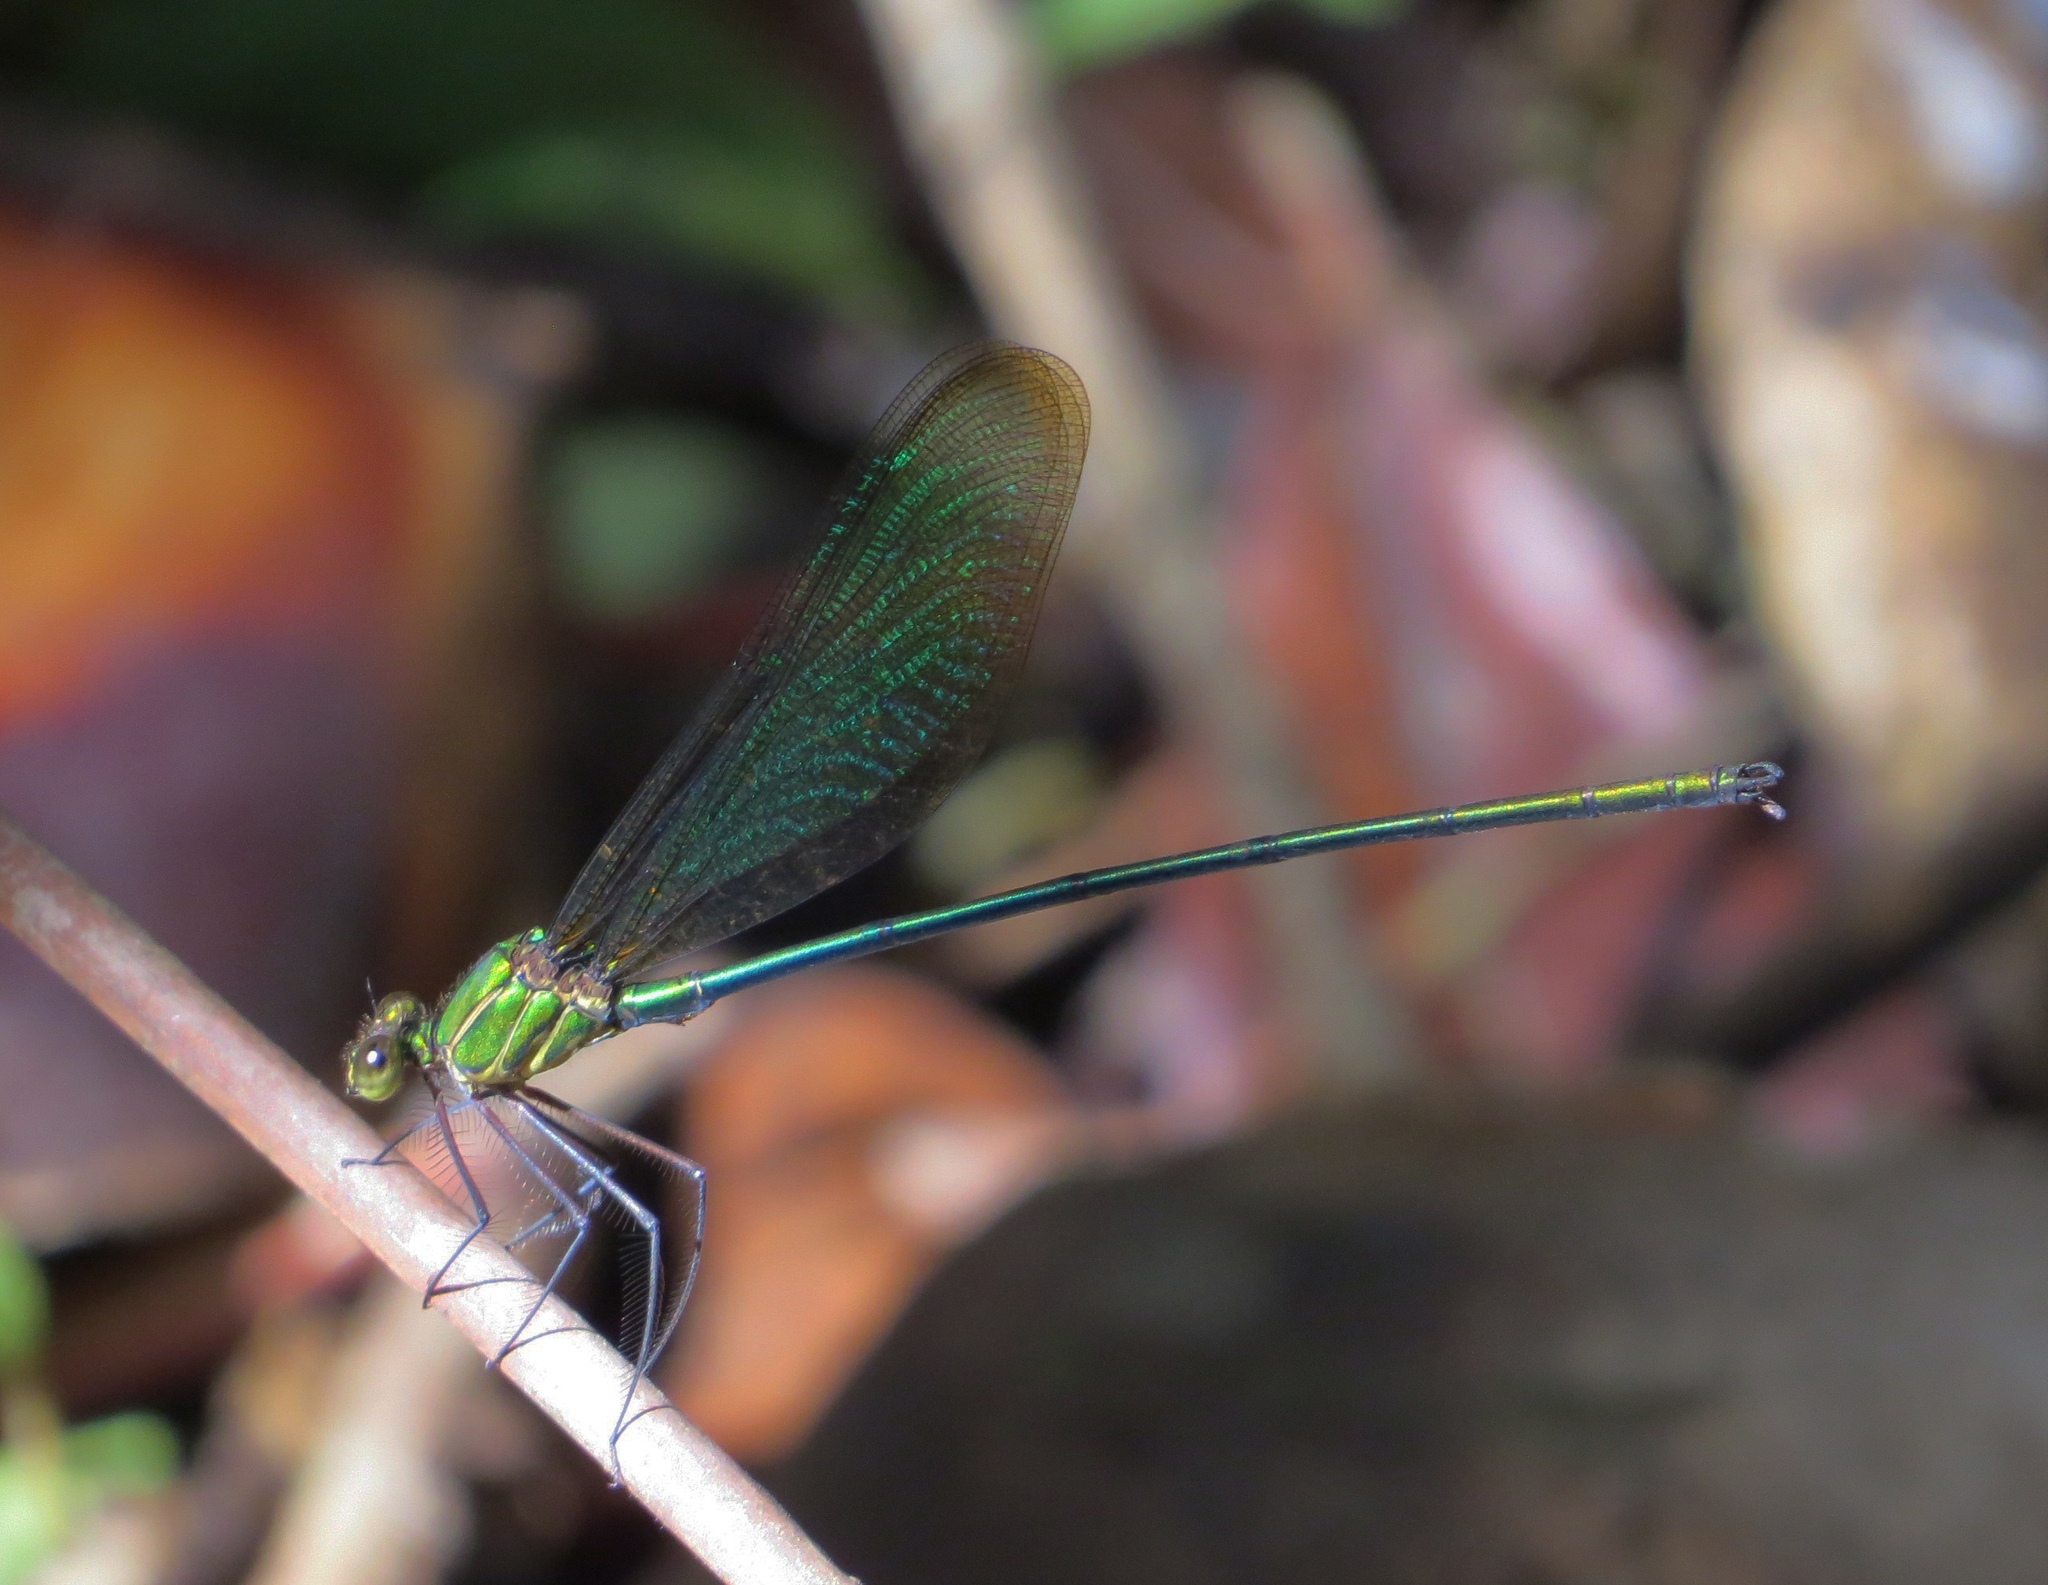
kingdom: Animalia
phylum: Arthropoda
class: Insecta
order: Odonata
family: Calopterygidae
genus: Phaon
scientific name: Phaon rasoherinae
